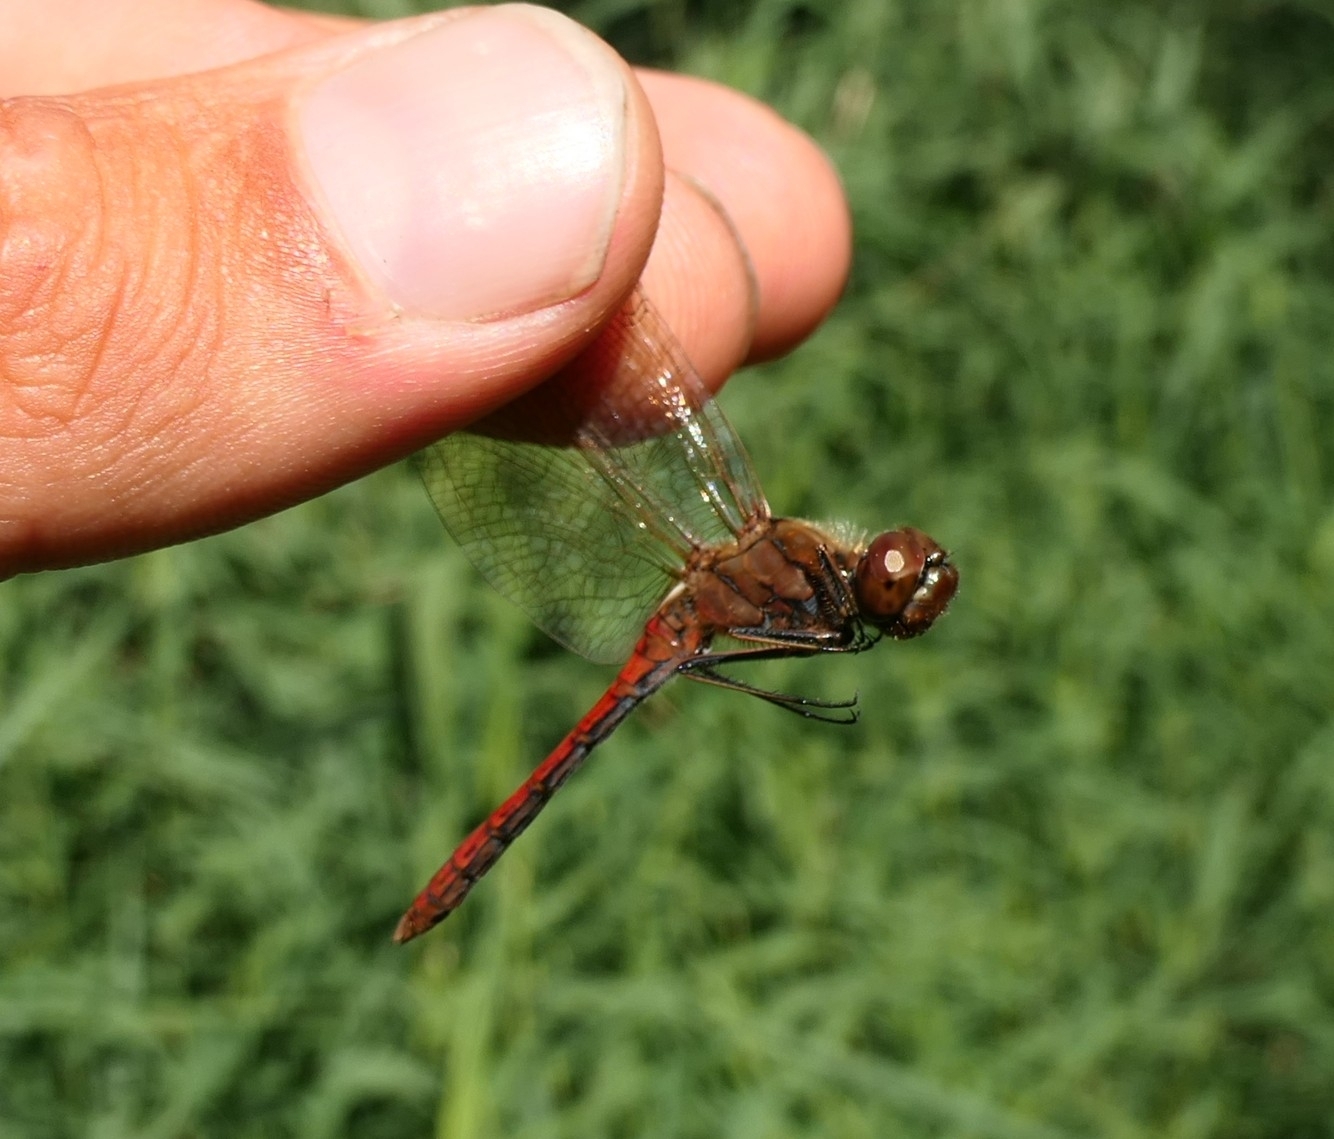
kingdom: Animalia
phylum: Arthropoda
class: Insecta
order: Odonata
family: Libellulidae
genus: Sympetrum
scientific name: Sympetrum vulgatum
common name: Vagrant darter
